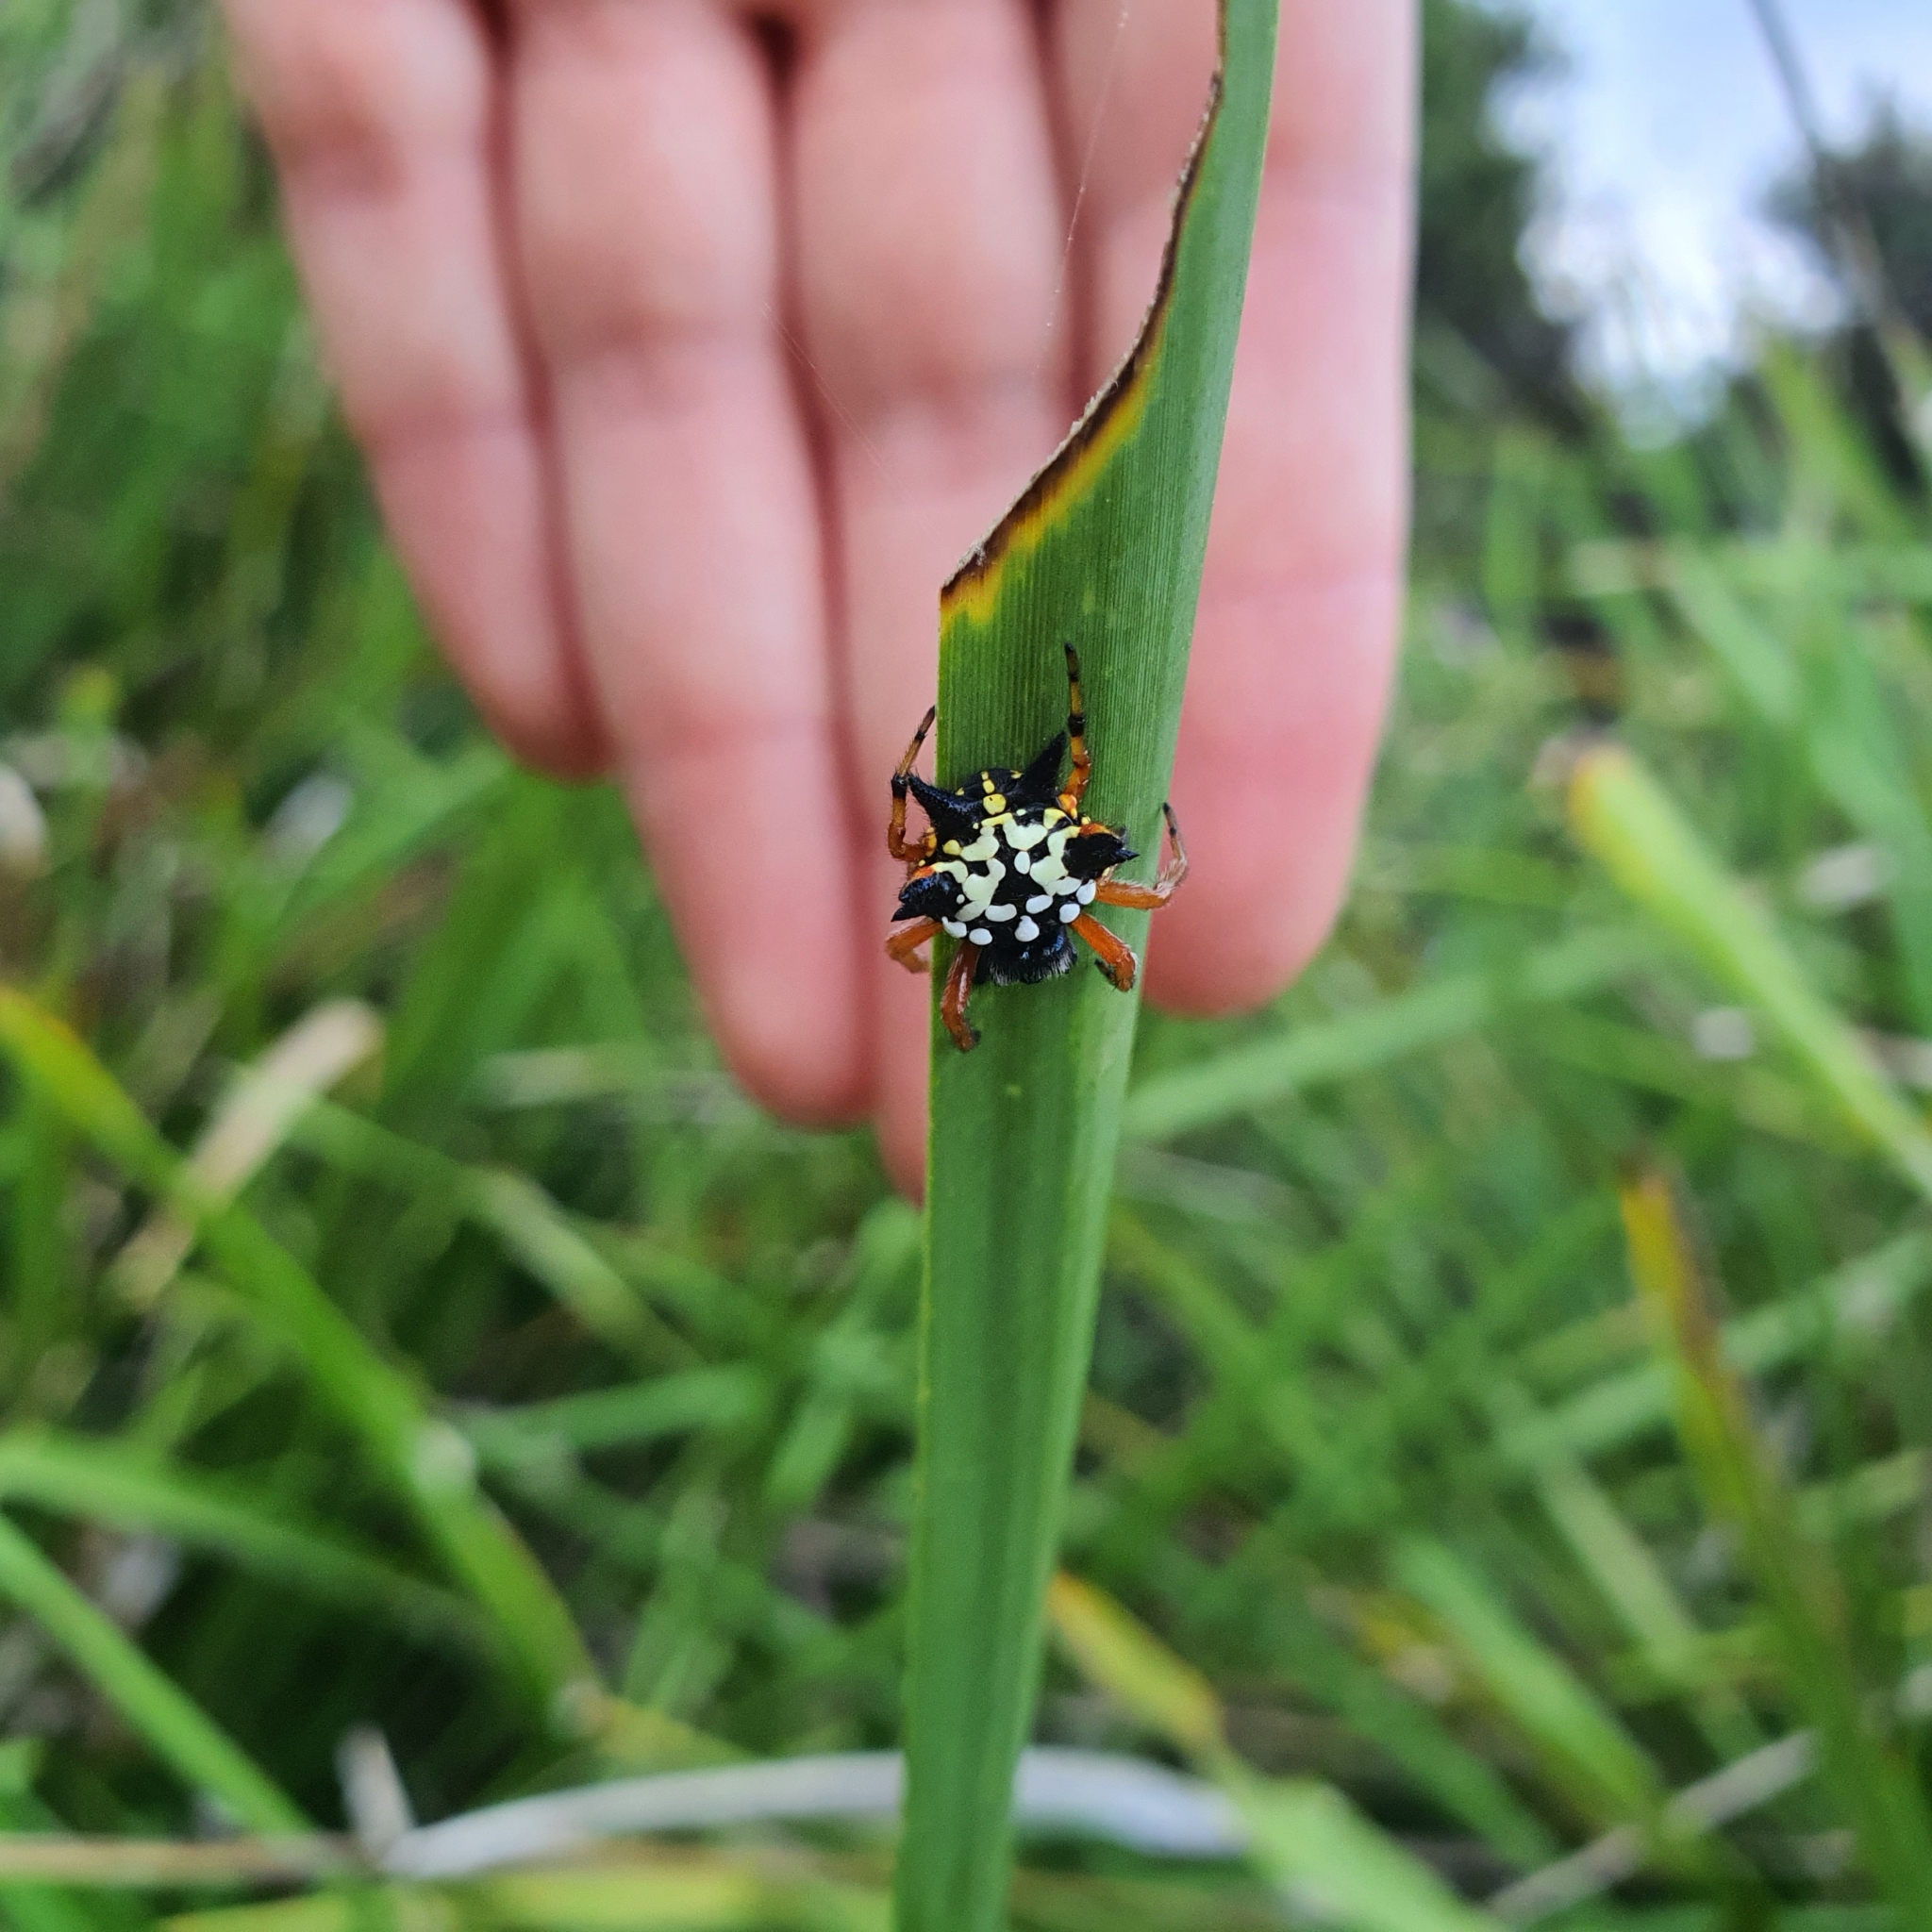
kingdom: Animalia
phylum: Arthropoda
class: Arachnida
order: Araneae
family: Araneidae
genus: Austracantha
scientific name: Austracantha minax
